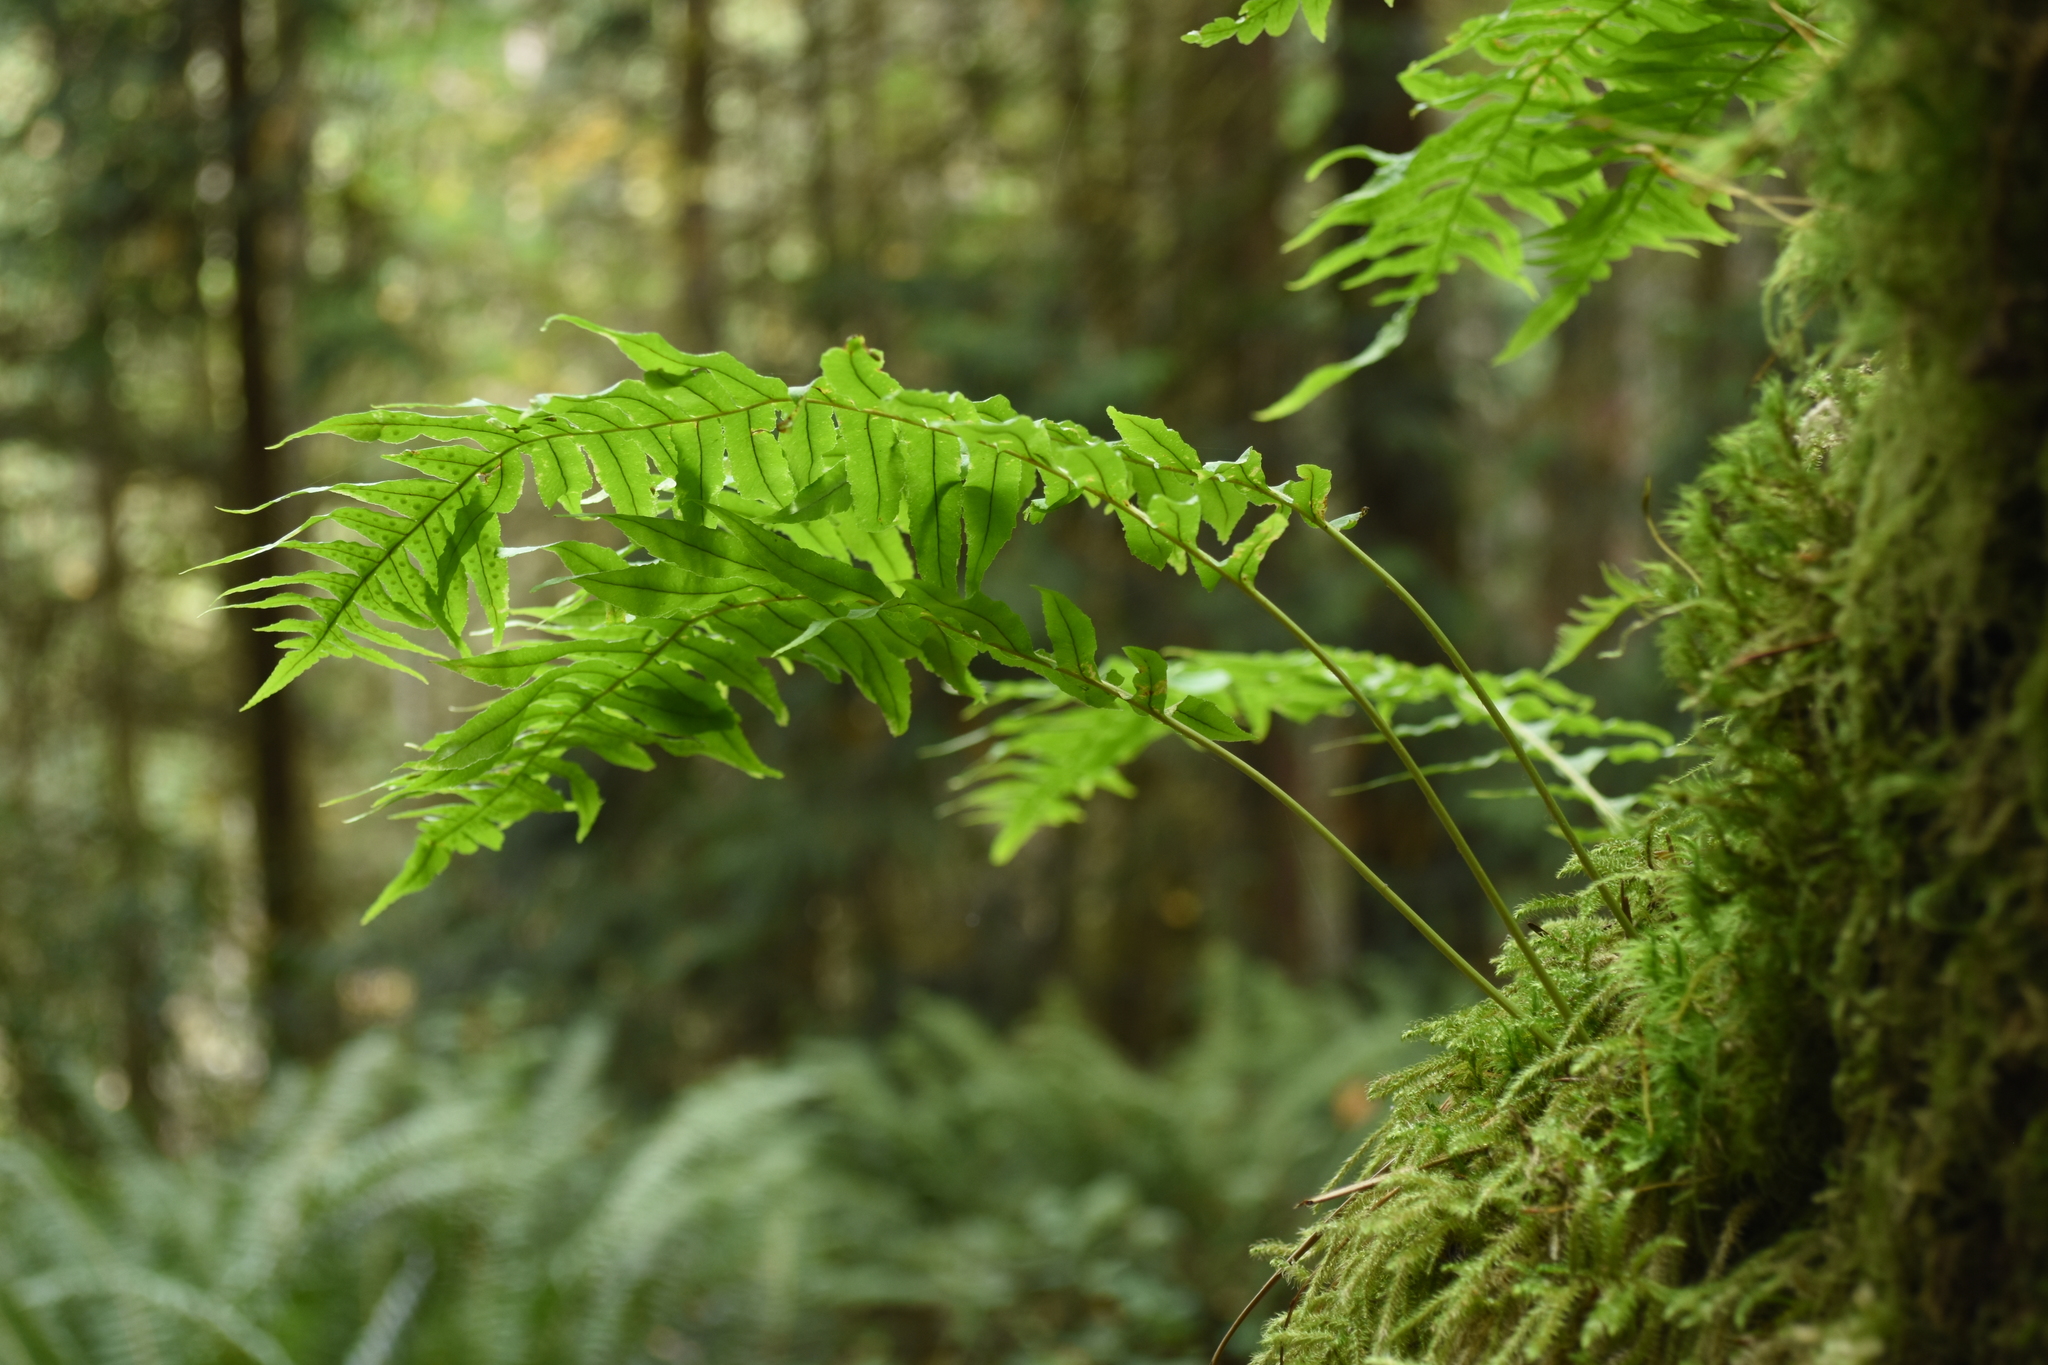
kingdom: Plantae
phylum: Tracheophyta
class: Polypodiopsida
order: Polypodiales
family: Polypodiaceae
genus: Polypodium
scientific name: Polypodium glycyrrhiza
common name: Licorice fern
